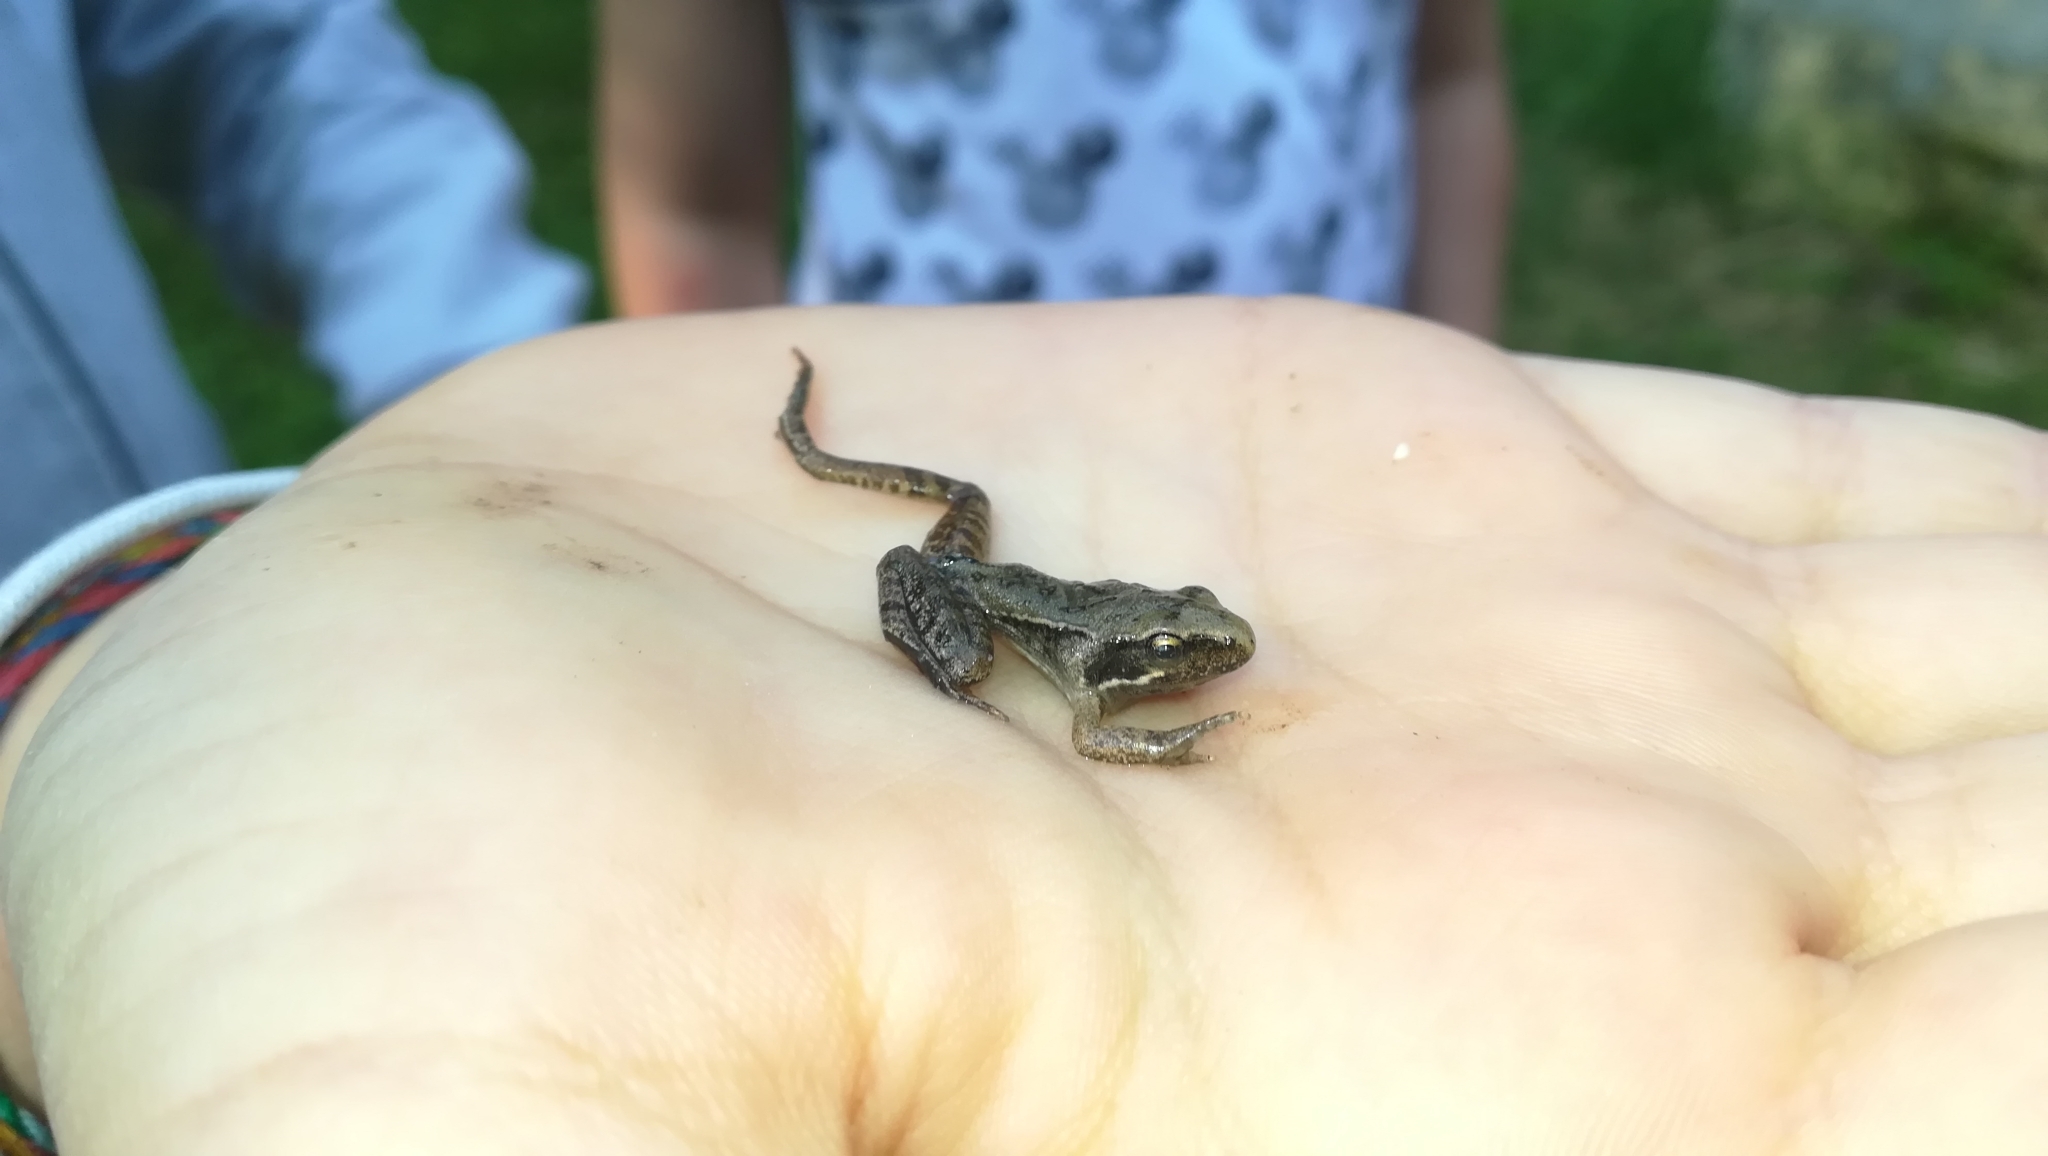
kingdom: Animalia
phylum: Chordata
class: Amphibia
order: Anura
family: Ranidae
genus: Rana
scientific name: Rana latastei
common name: Italian agile frog
